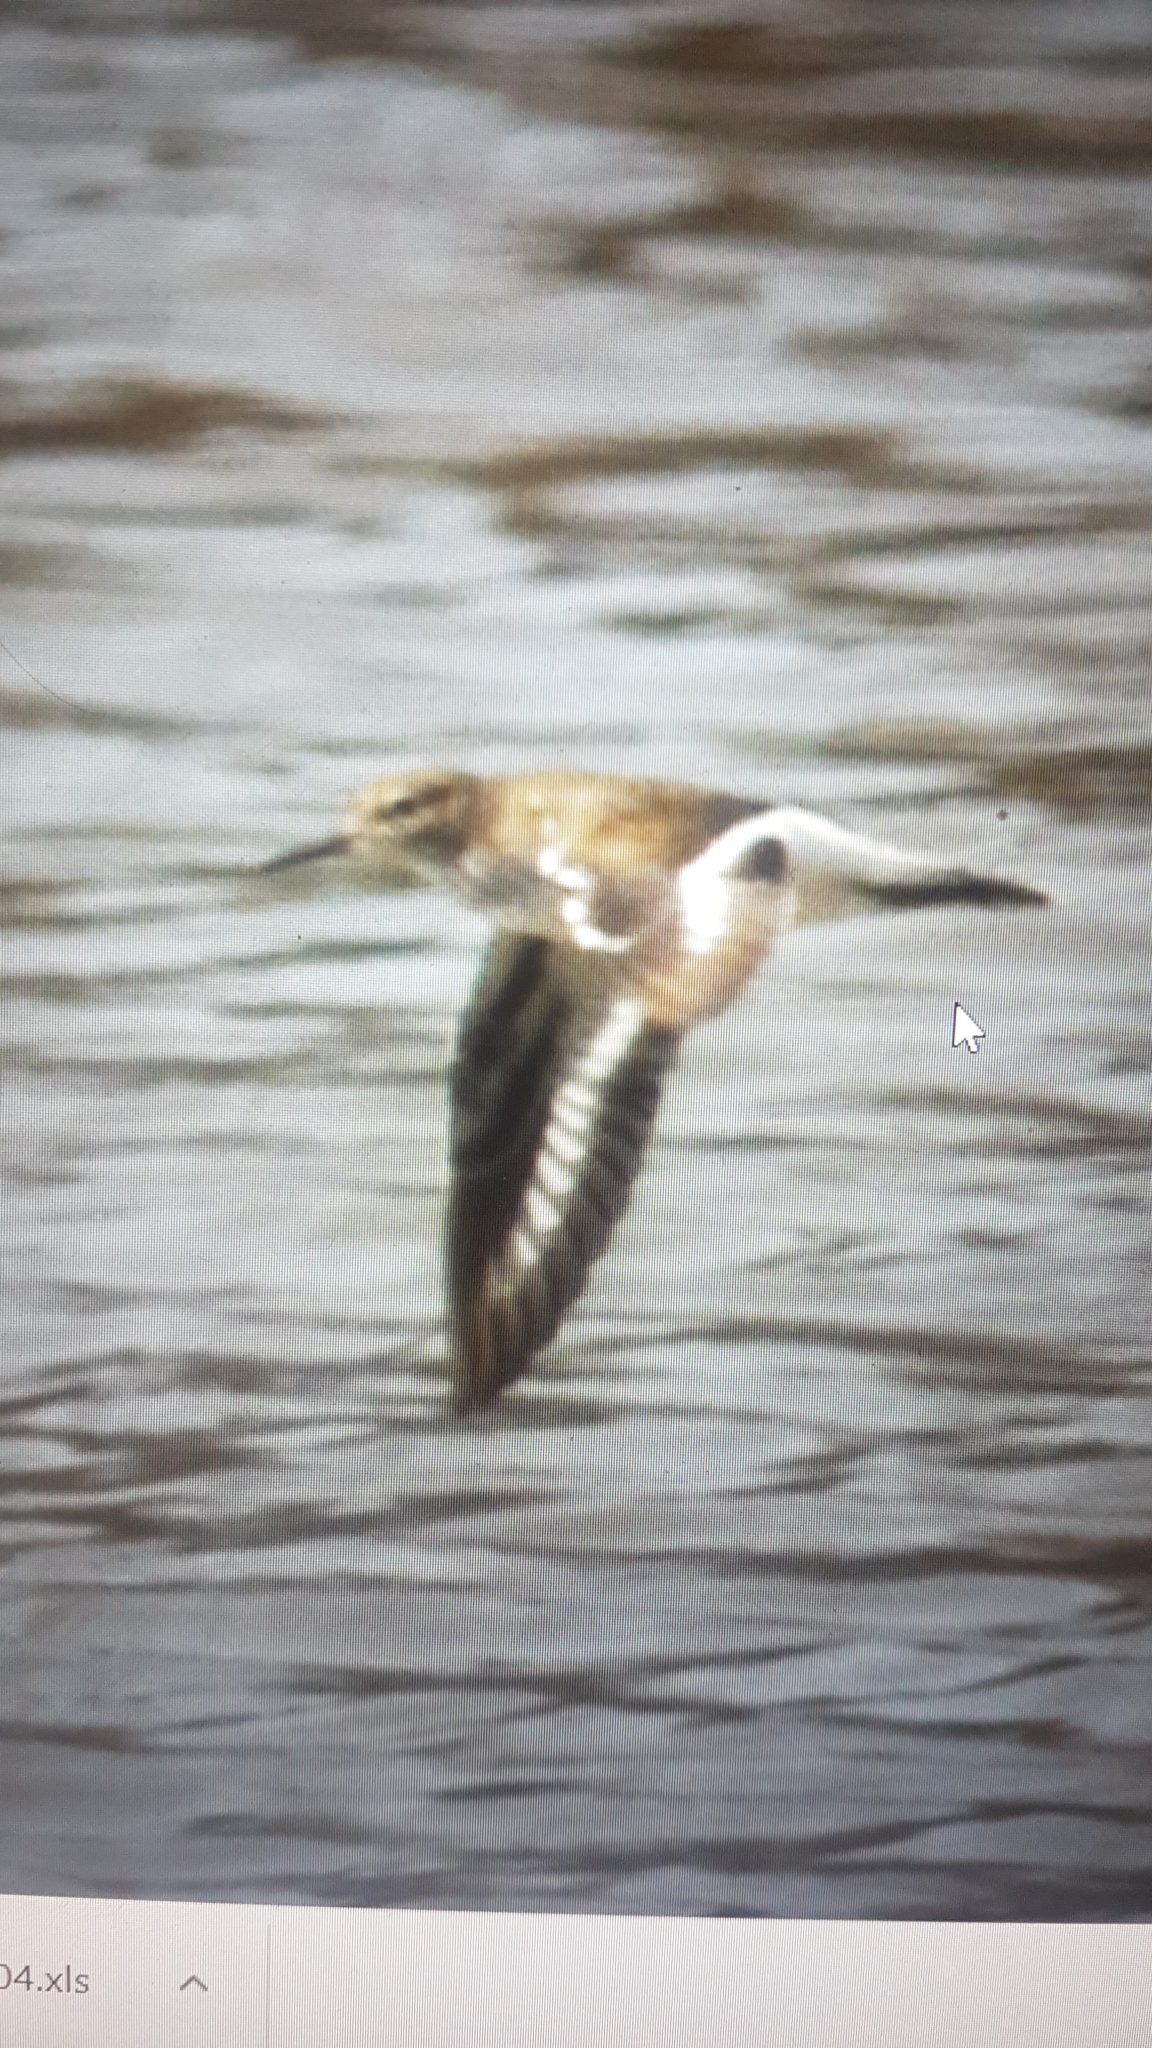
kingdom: Animalia
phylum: Chordata
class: Aves
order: Charadriiformes
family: Scolopacidae
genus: Actitis
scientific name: Actitis hypoleucos
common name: Common sandpiper
